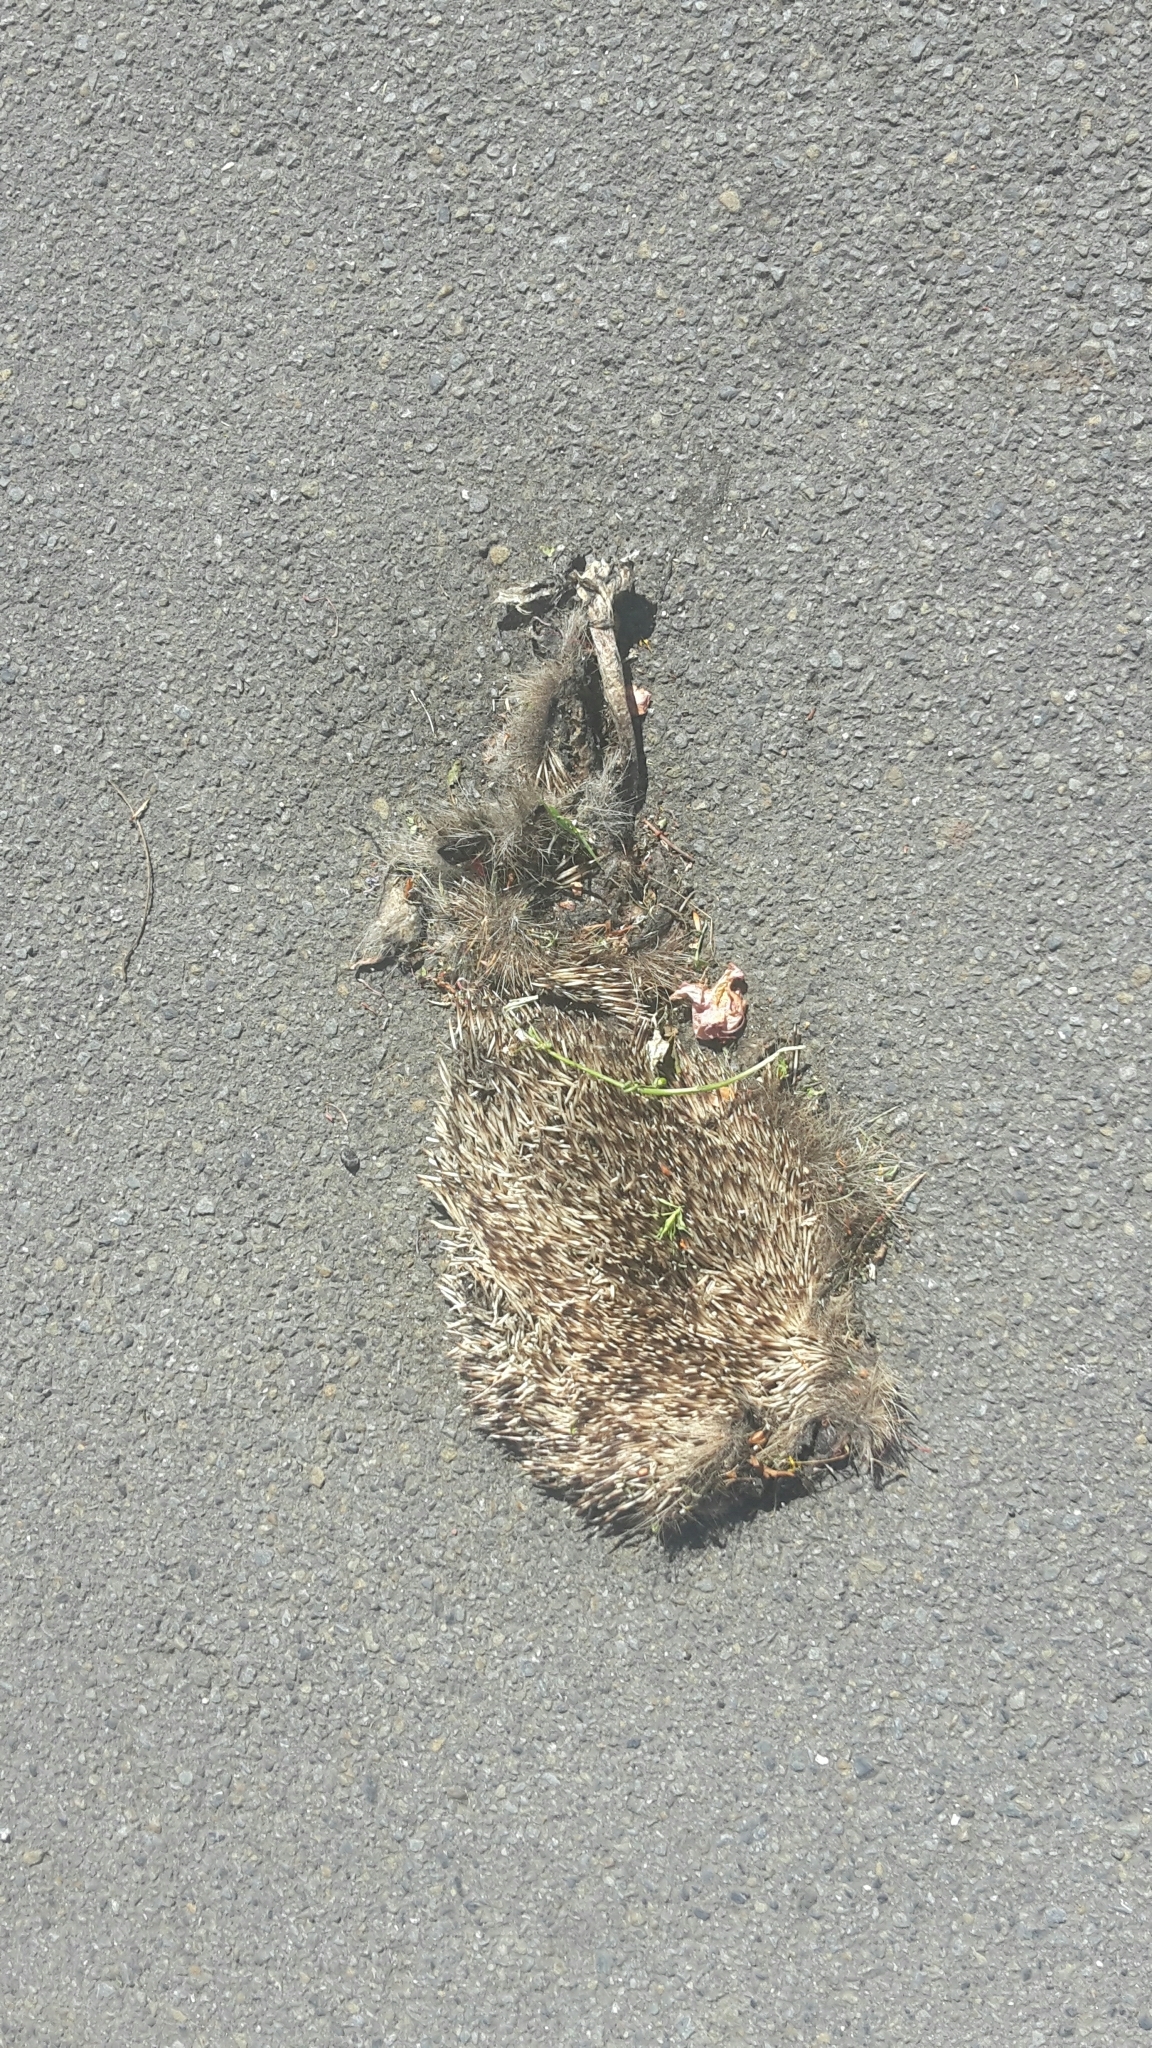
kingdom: Animalia
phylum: Chordata
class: Mammalia
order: Erinaceomorpha
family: Erinaceidae
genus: Erinaceus
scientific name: Erinaceus europaeus
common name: West european hedgehog
